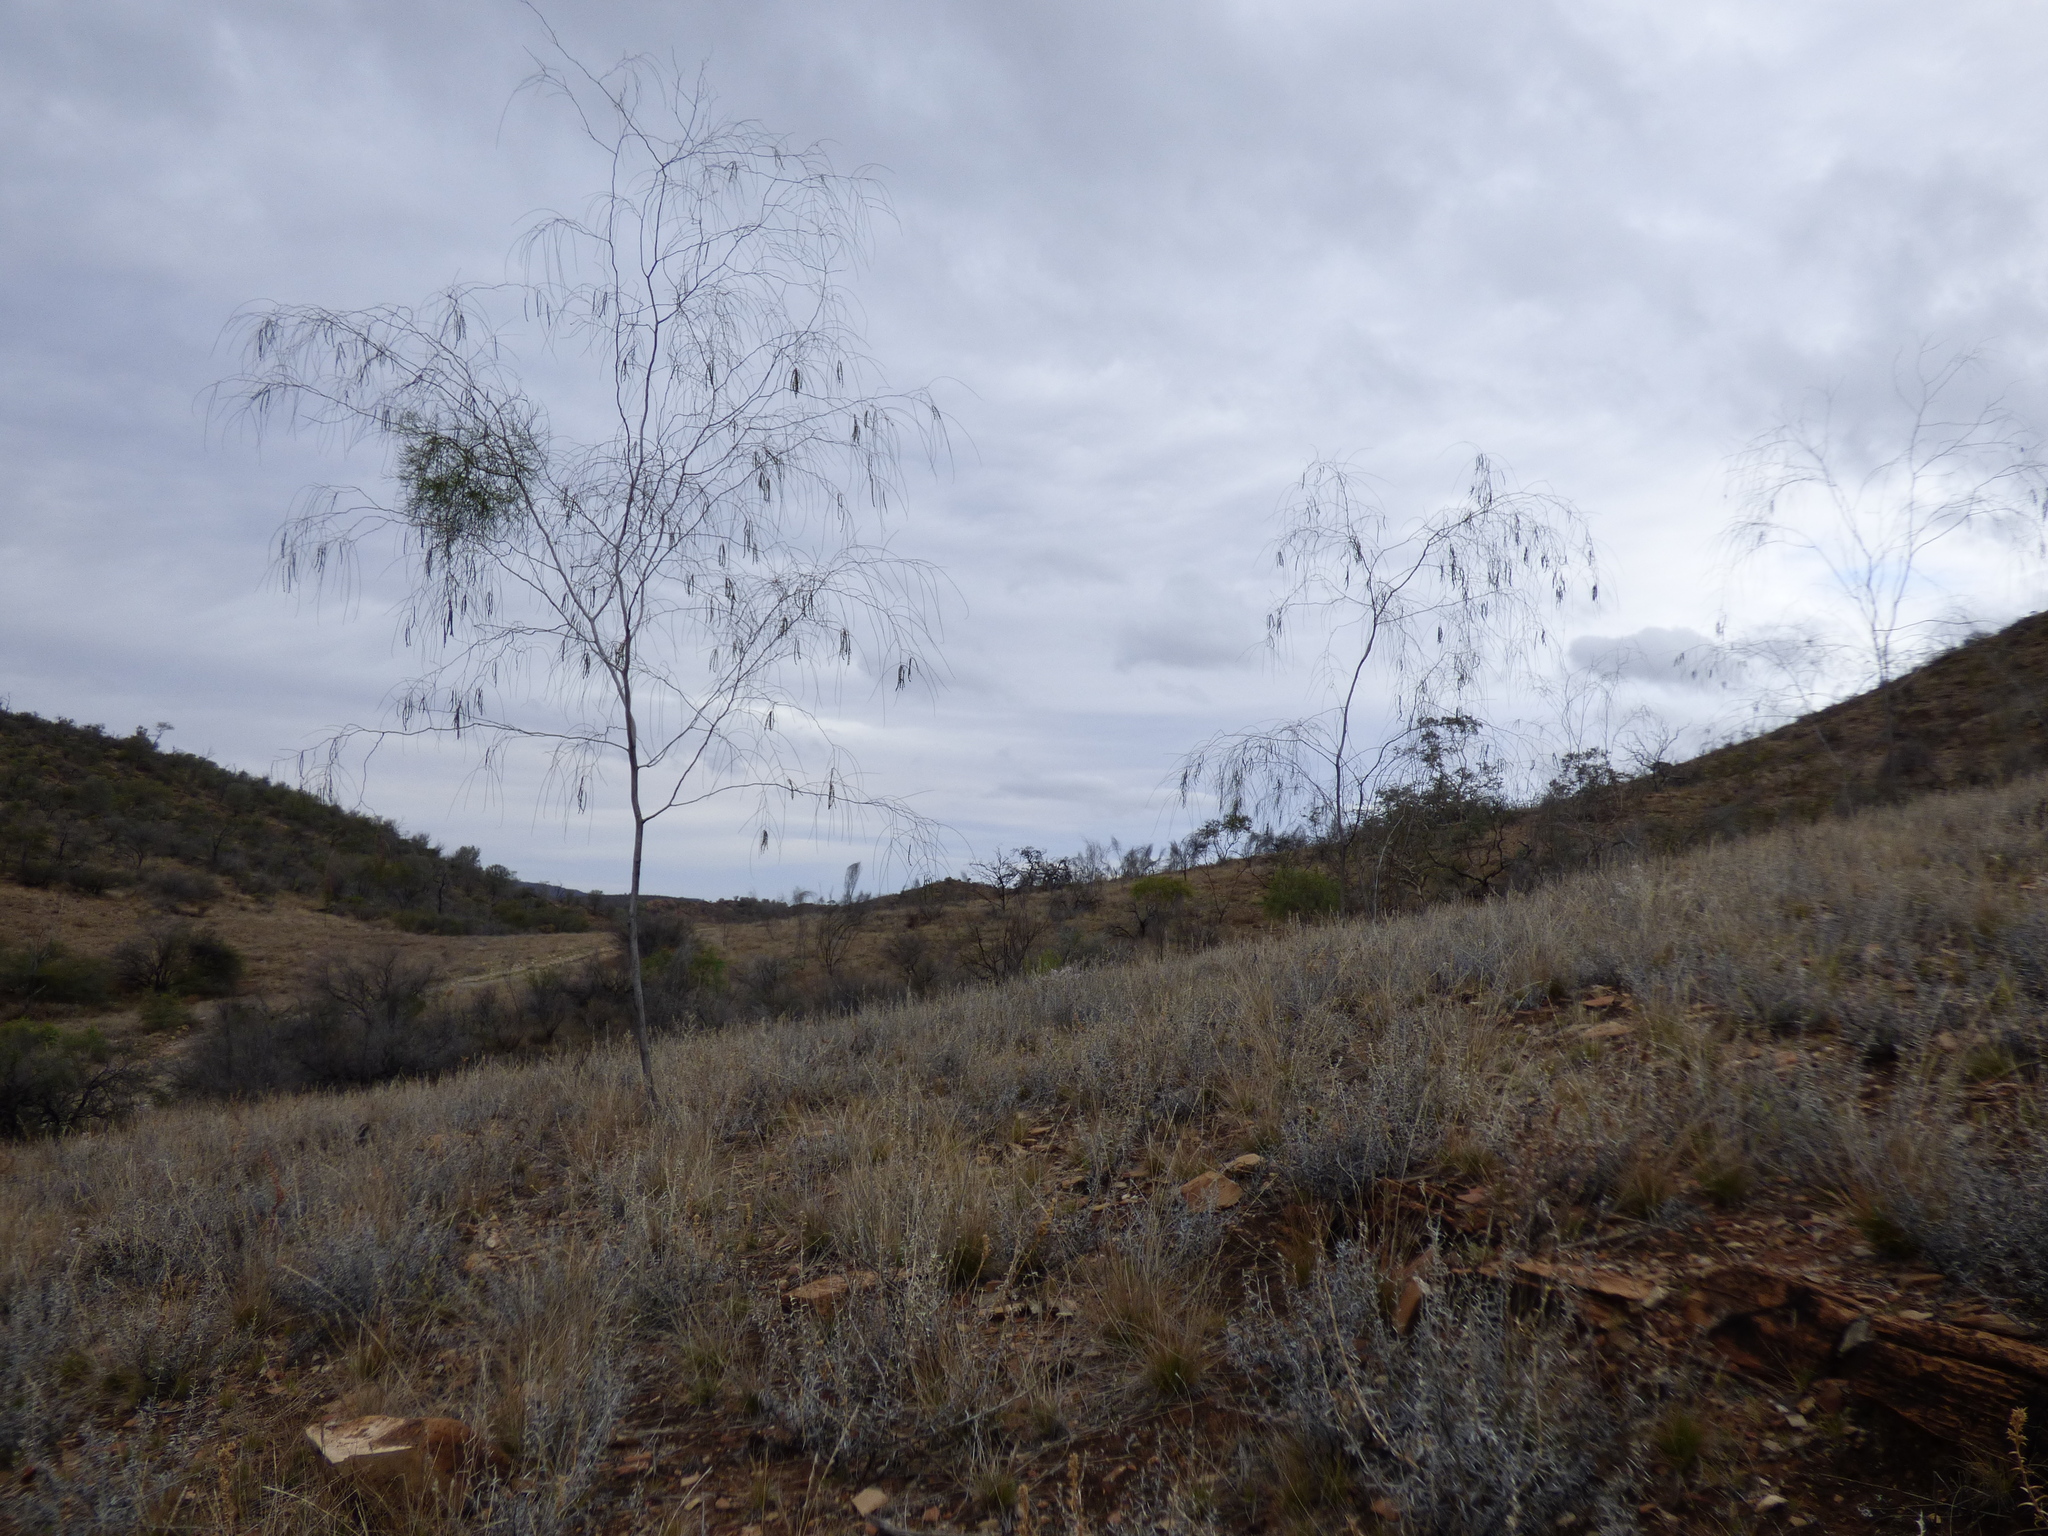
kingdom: Plantae
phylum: Tracheophyta
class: Magnoliopsida
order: Fabales
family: Fabaceae
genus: Acacia
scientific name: Acacia araneosa
